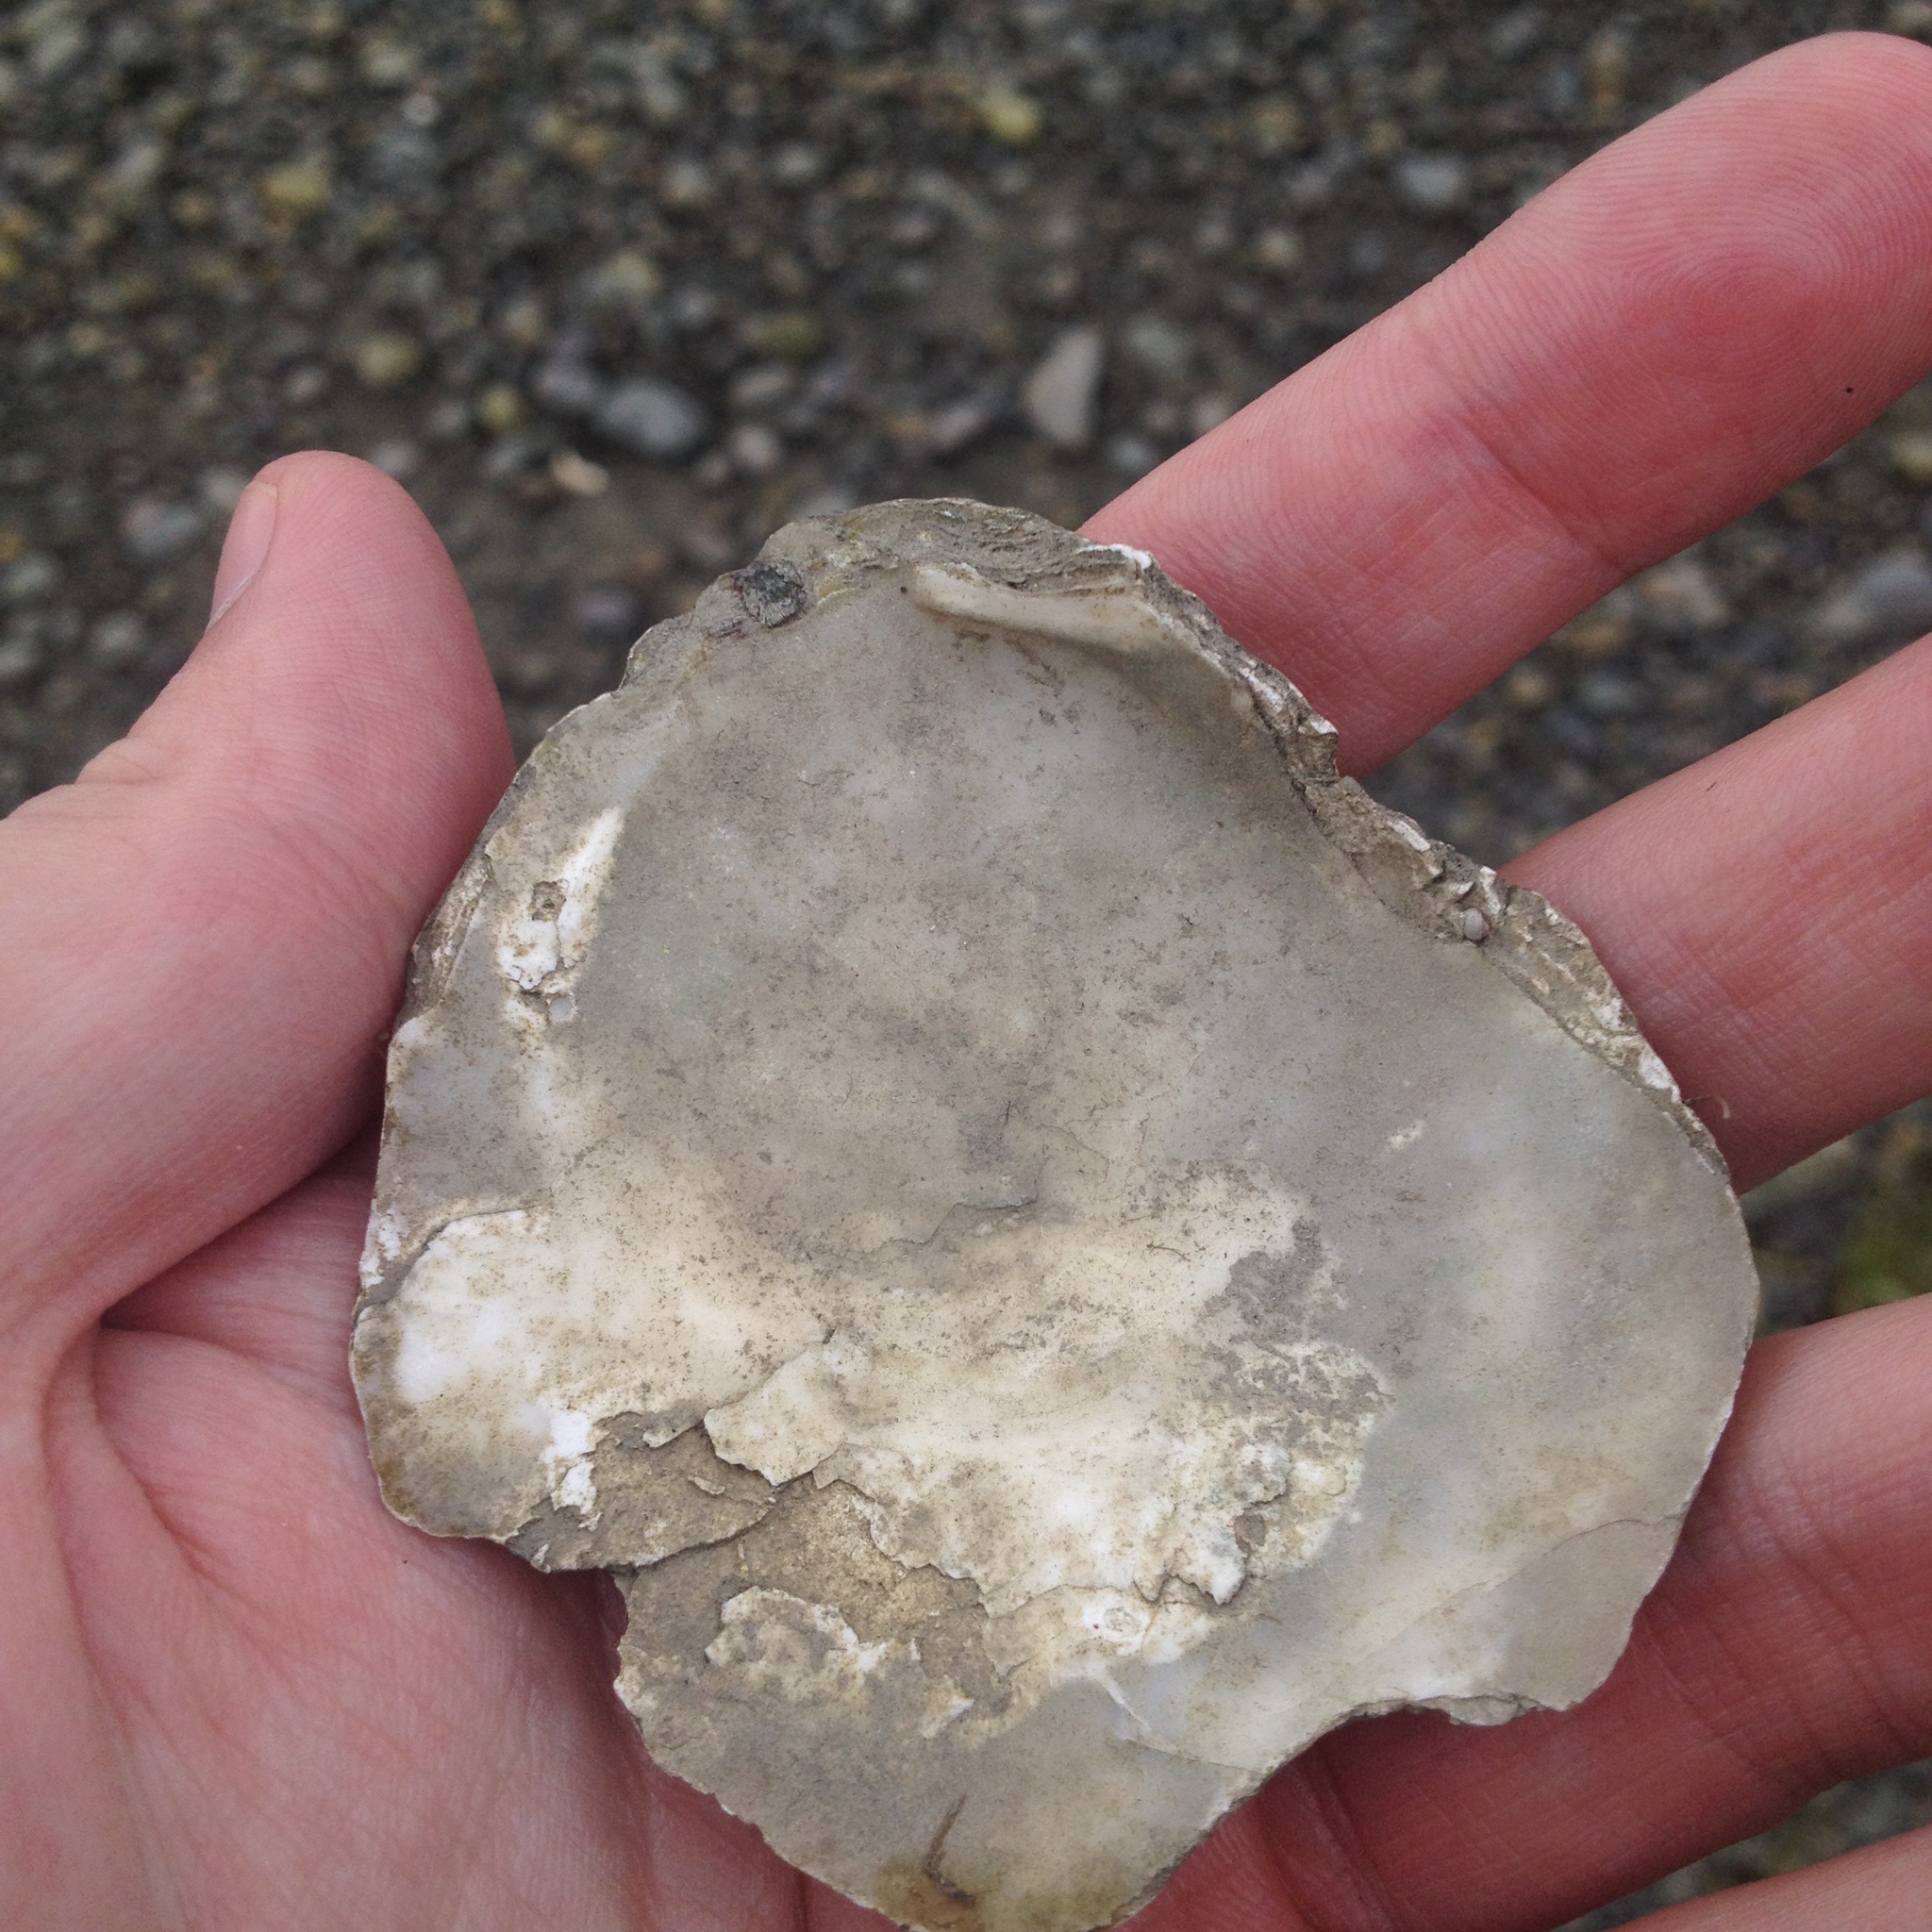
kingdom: Animalia
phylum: Mollusca
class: Bivalvia
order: Ostreida
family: Ostreidae
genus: Ostrea
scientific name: Ostrea edulis
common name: Flat oyster
